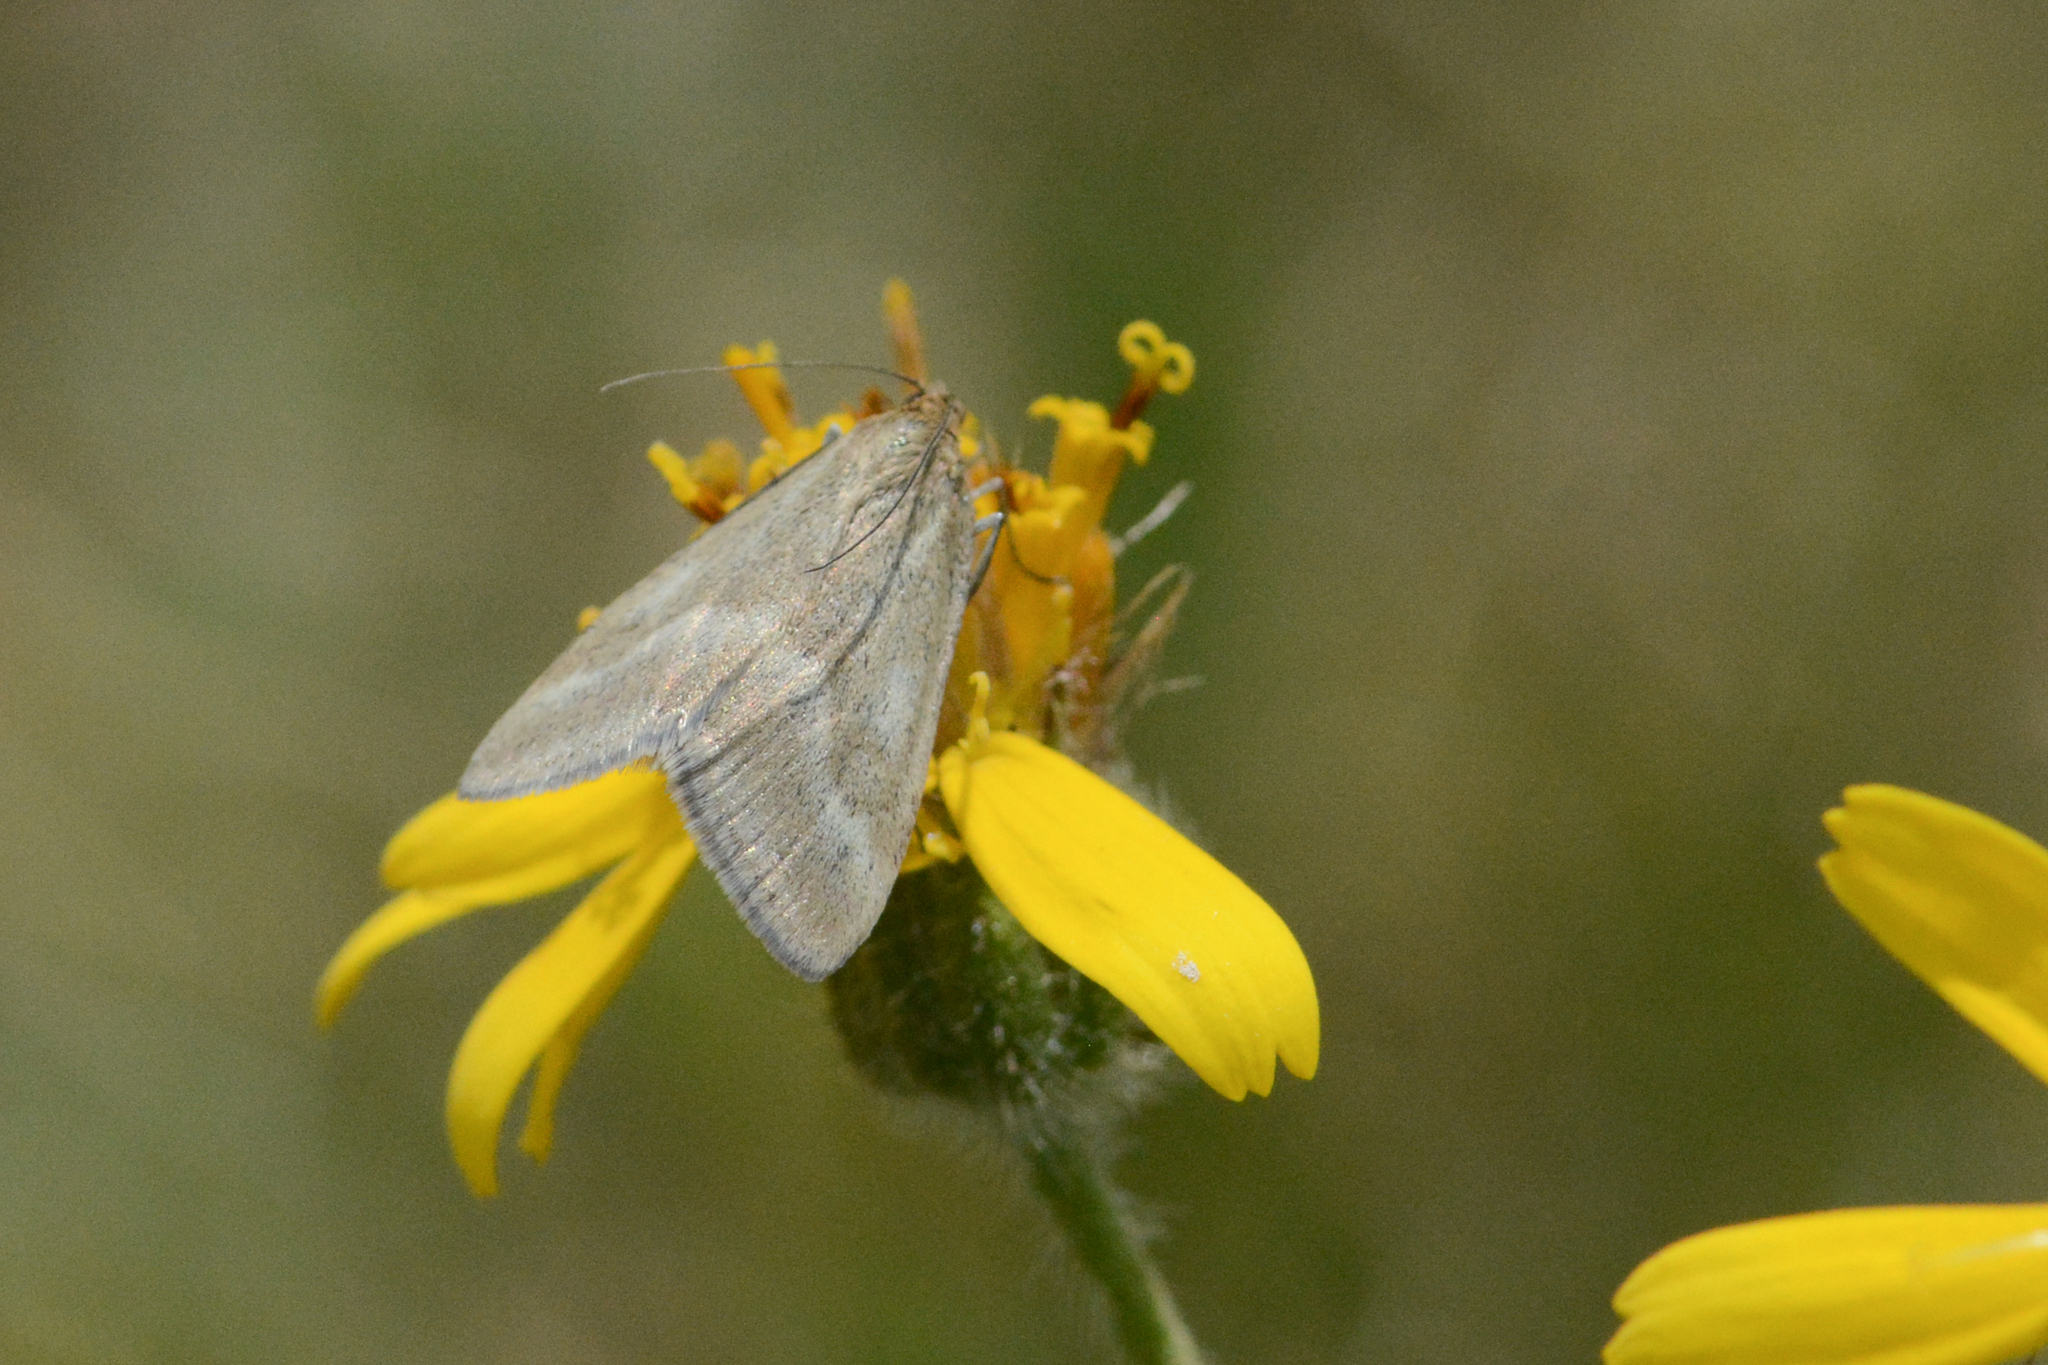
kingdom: Animalia
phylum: Arthropoda
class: Insecta
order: Lepidoptera
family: Crambidae
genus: Pyrausta
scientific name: Pyrausta unifascialis
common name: One-banded pyrausta
